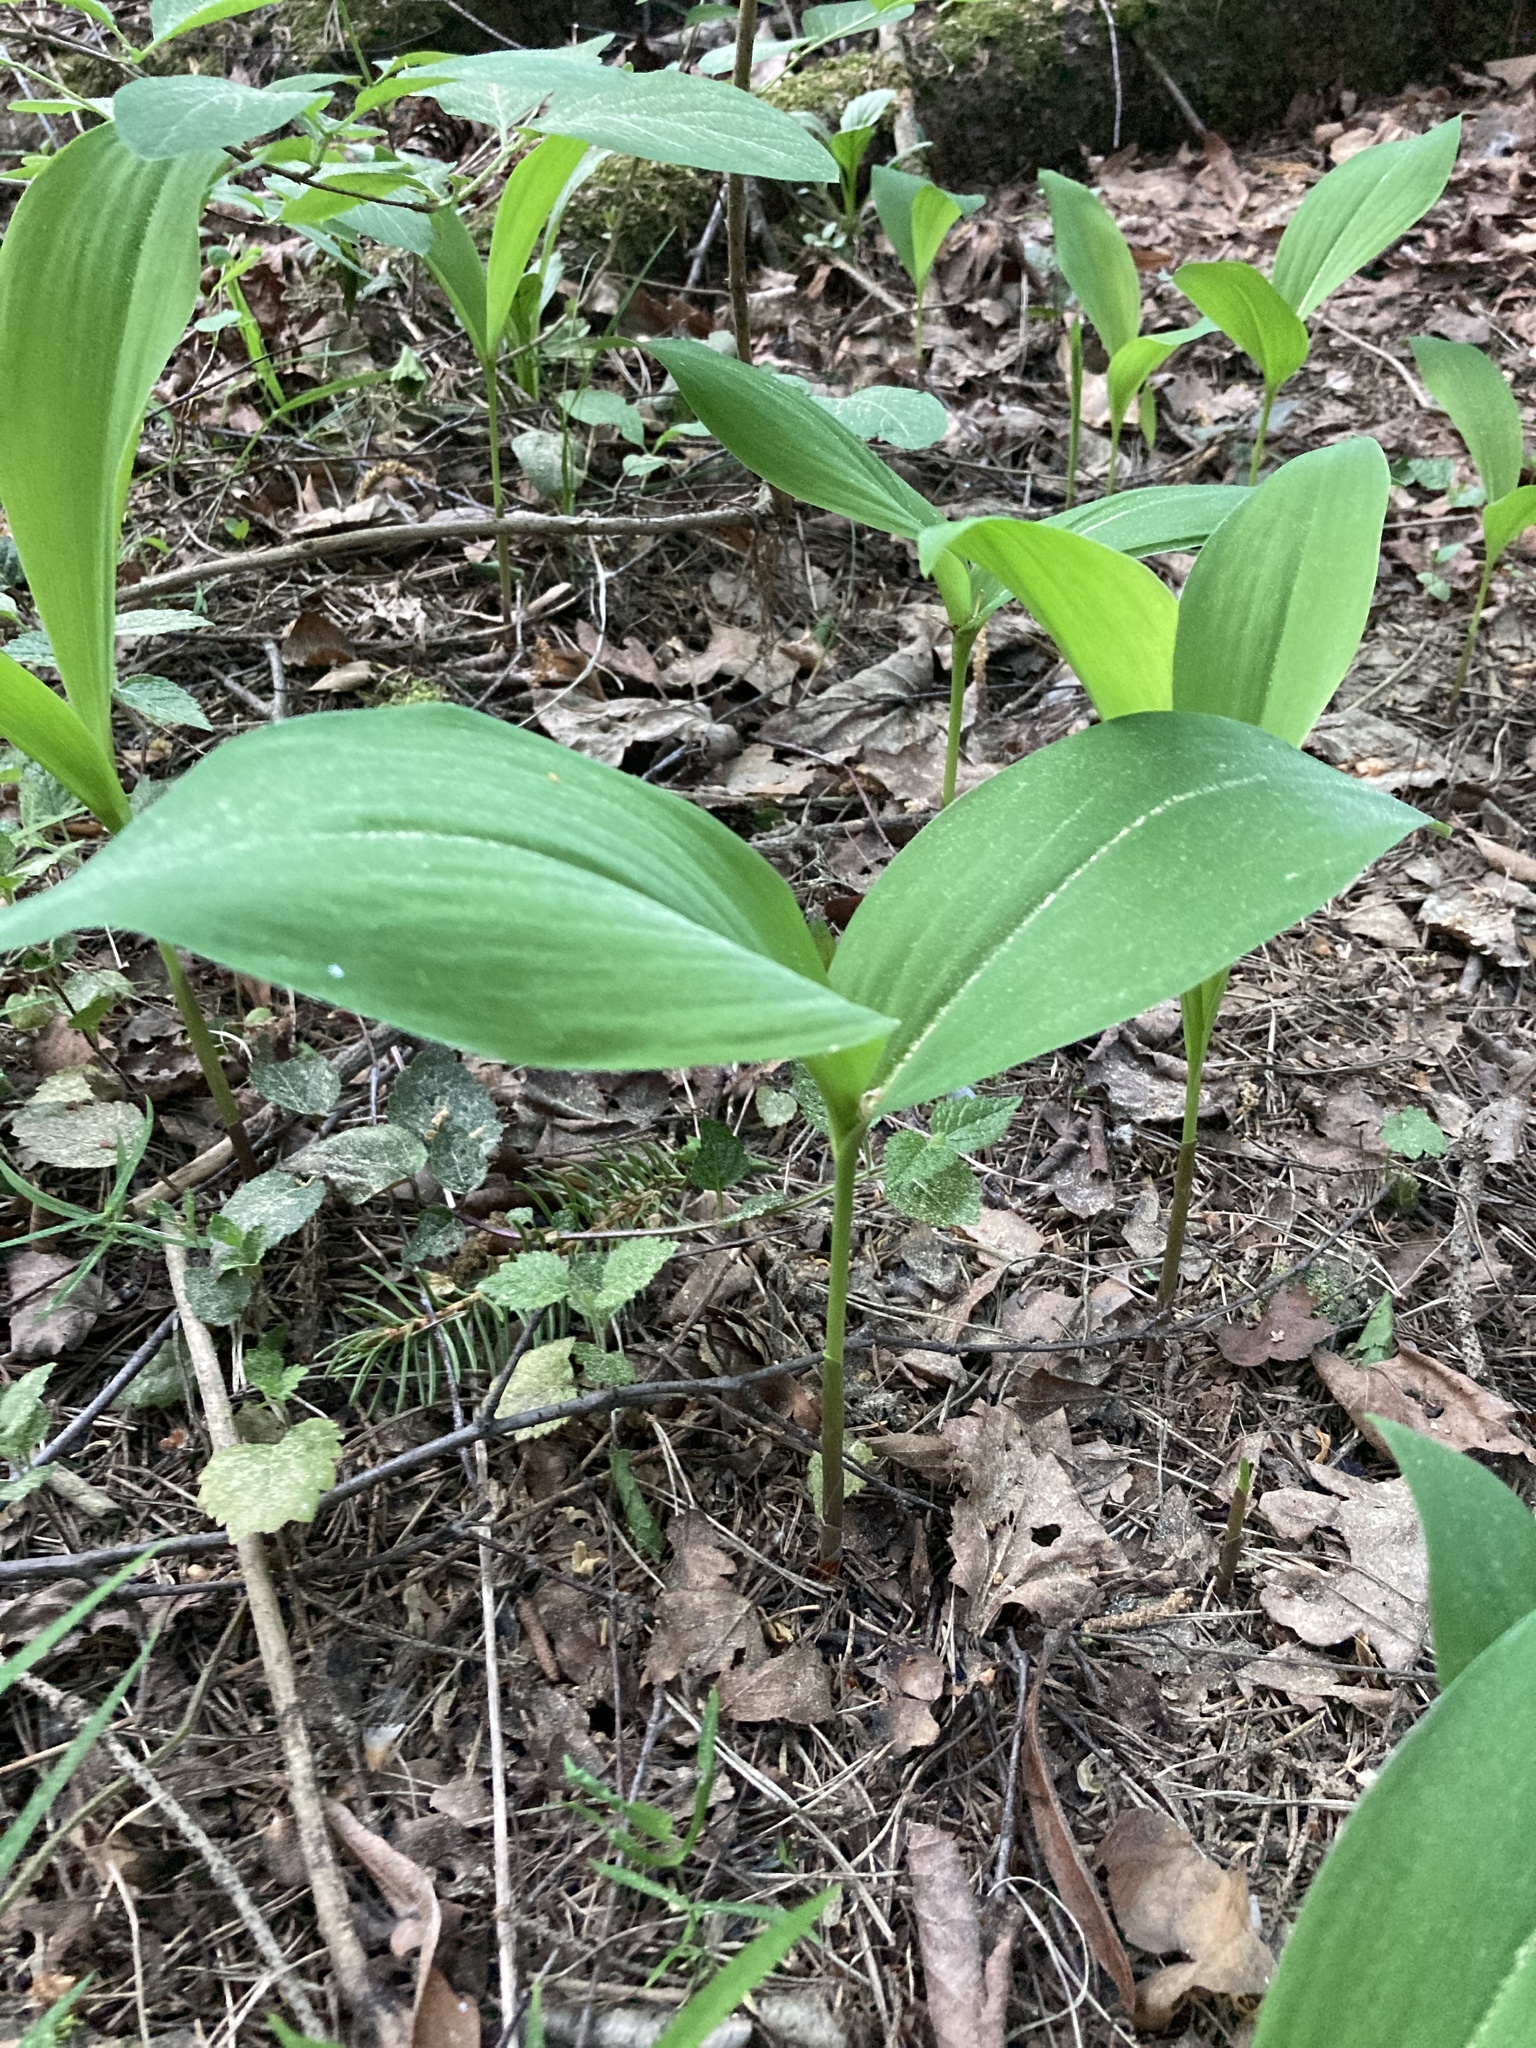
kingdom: Plantae
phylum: Tracheophyta
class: Liliopsida
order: Asparagales
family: Asparagaceae
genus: Convallaria
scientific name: Convallaria majalis
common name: Lily-of-the-valley
